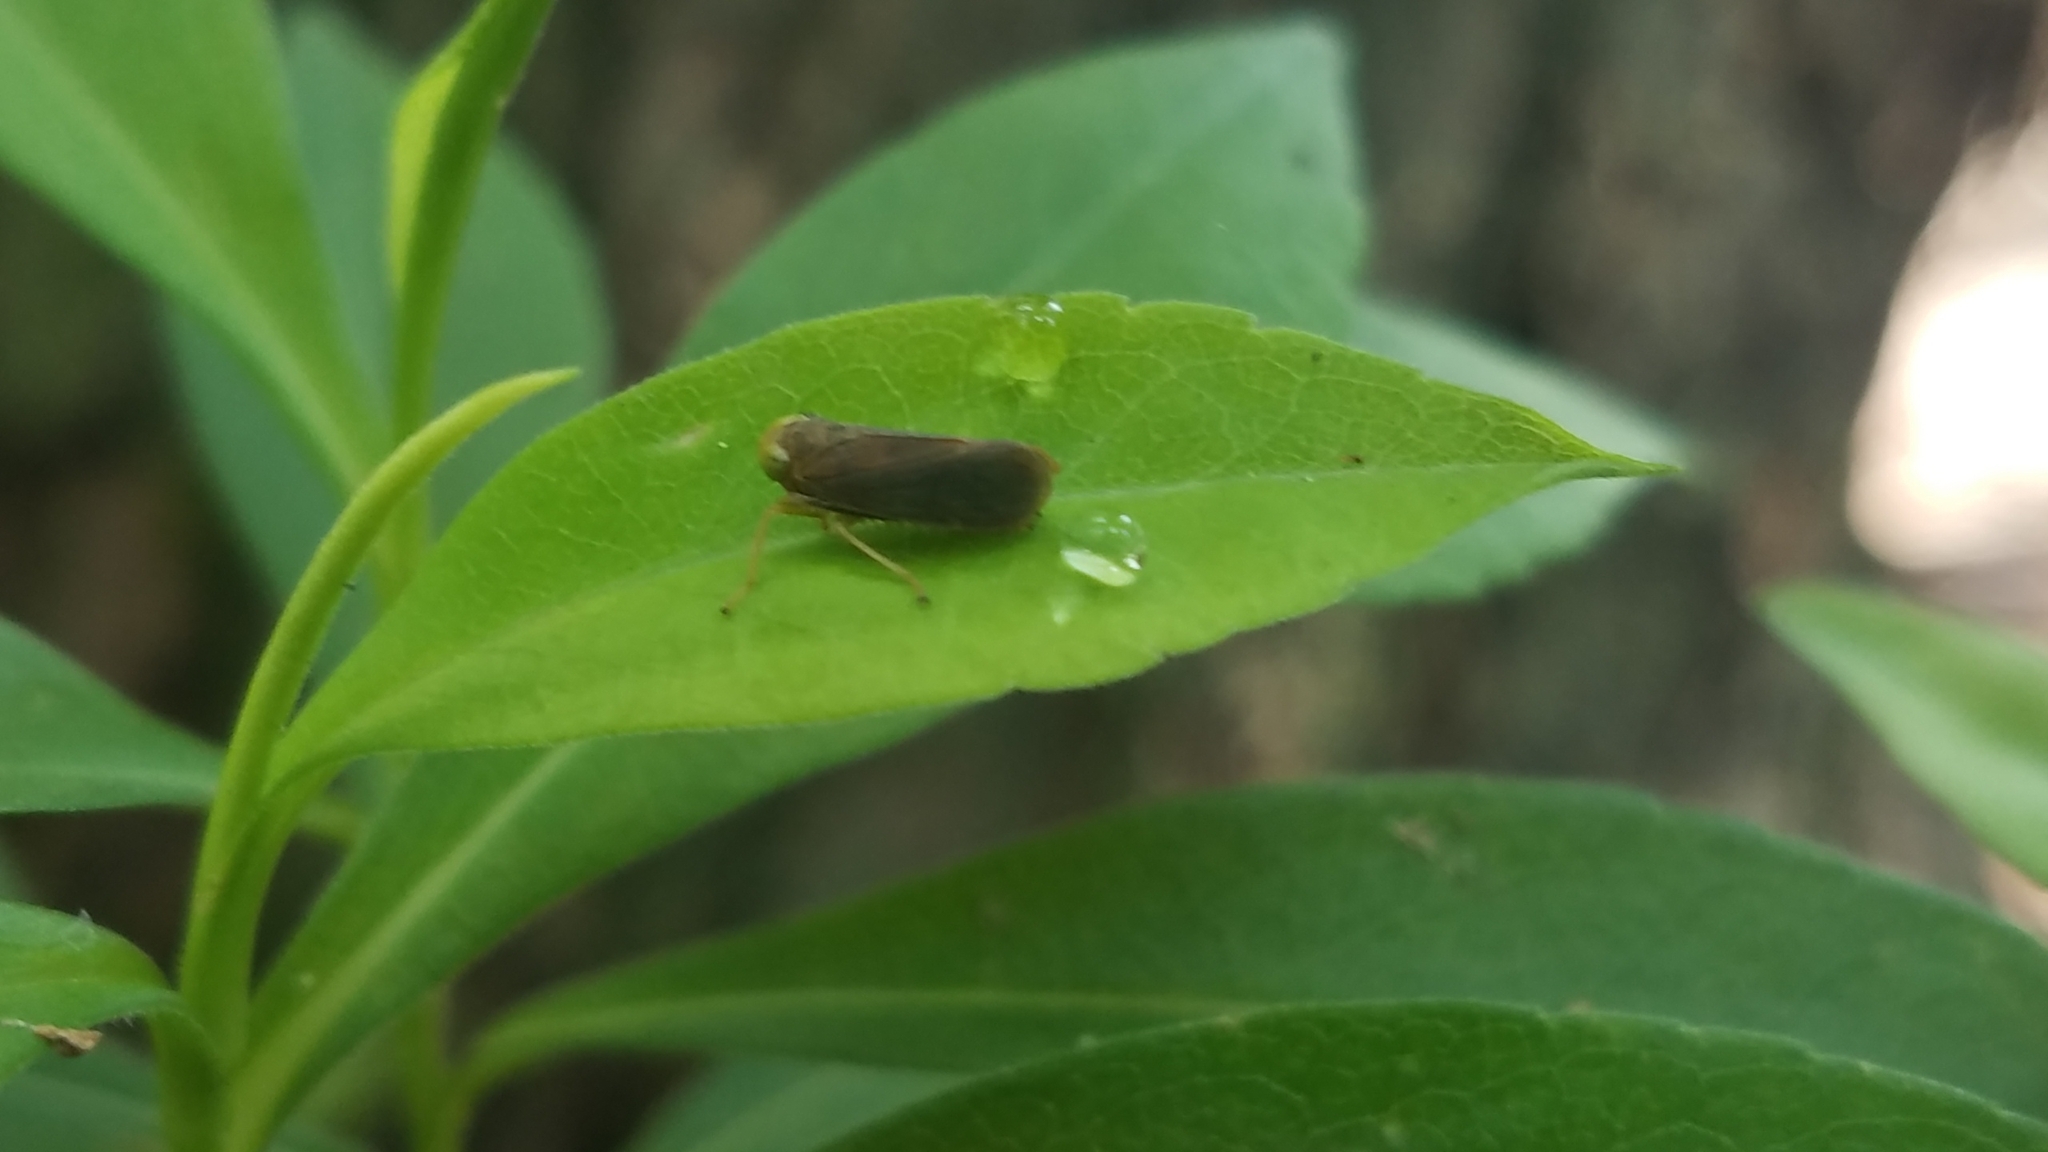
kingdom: Animalia
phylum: Arthropoda
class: Insecta
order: Hemiptera
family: Cicadellidae
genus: Jikradia
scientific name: Jikradia olitoria
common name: Coppery leafhopper
